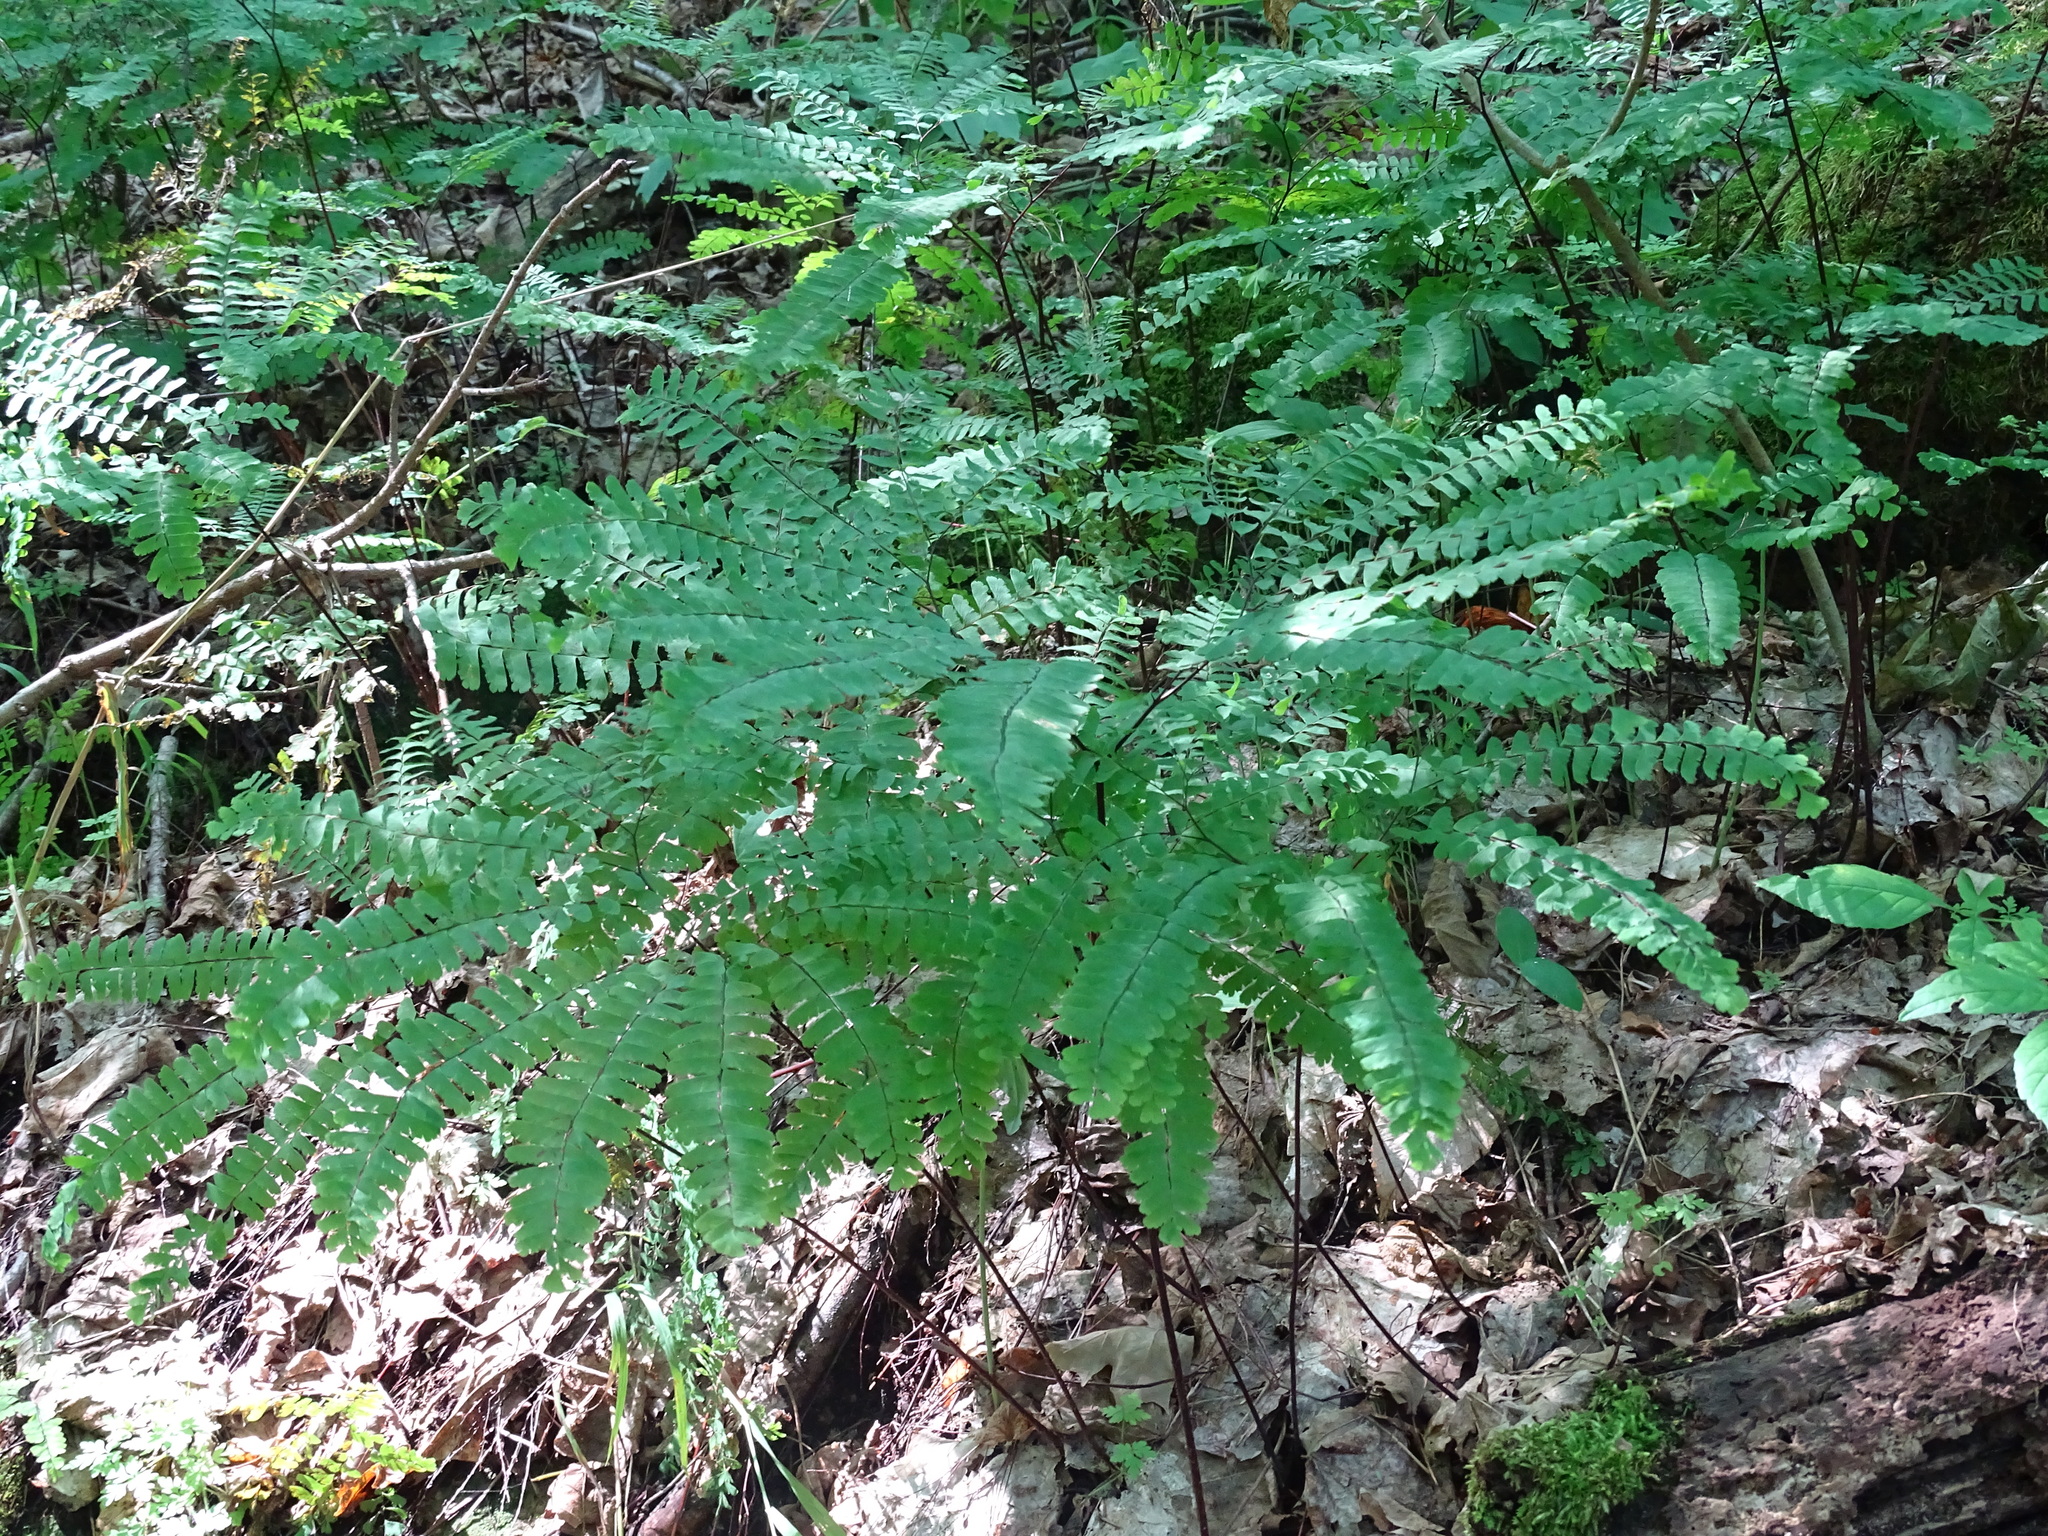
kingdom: Plantae
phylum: Tracheophyta
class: Polypodiopsida
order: Polypodiales
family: Pteridaceae
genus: Adiantum
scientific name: Adiantum pedatum
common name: Five-finger fern
